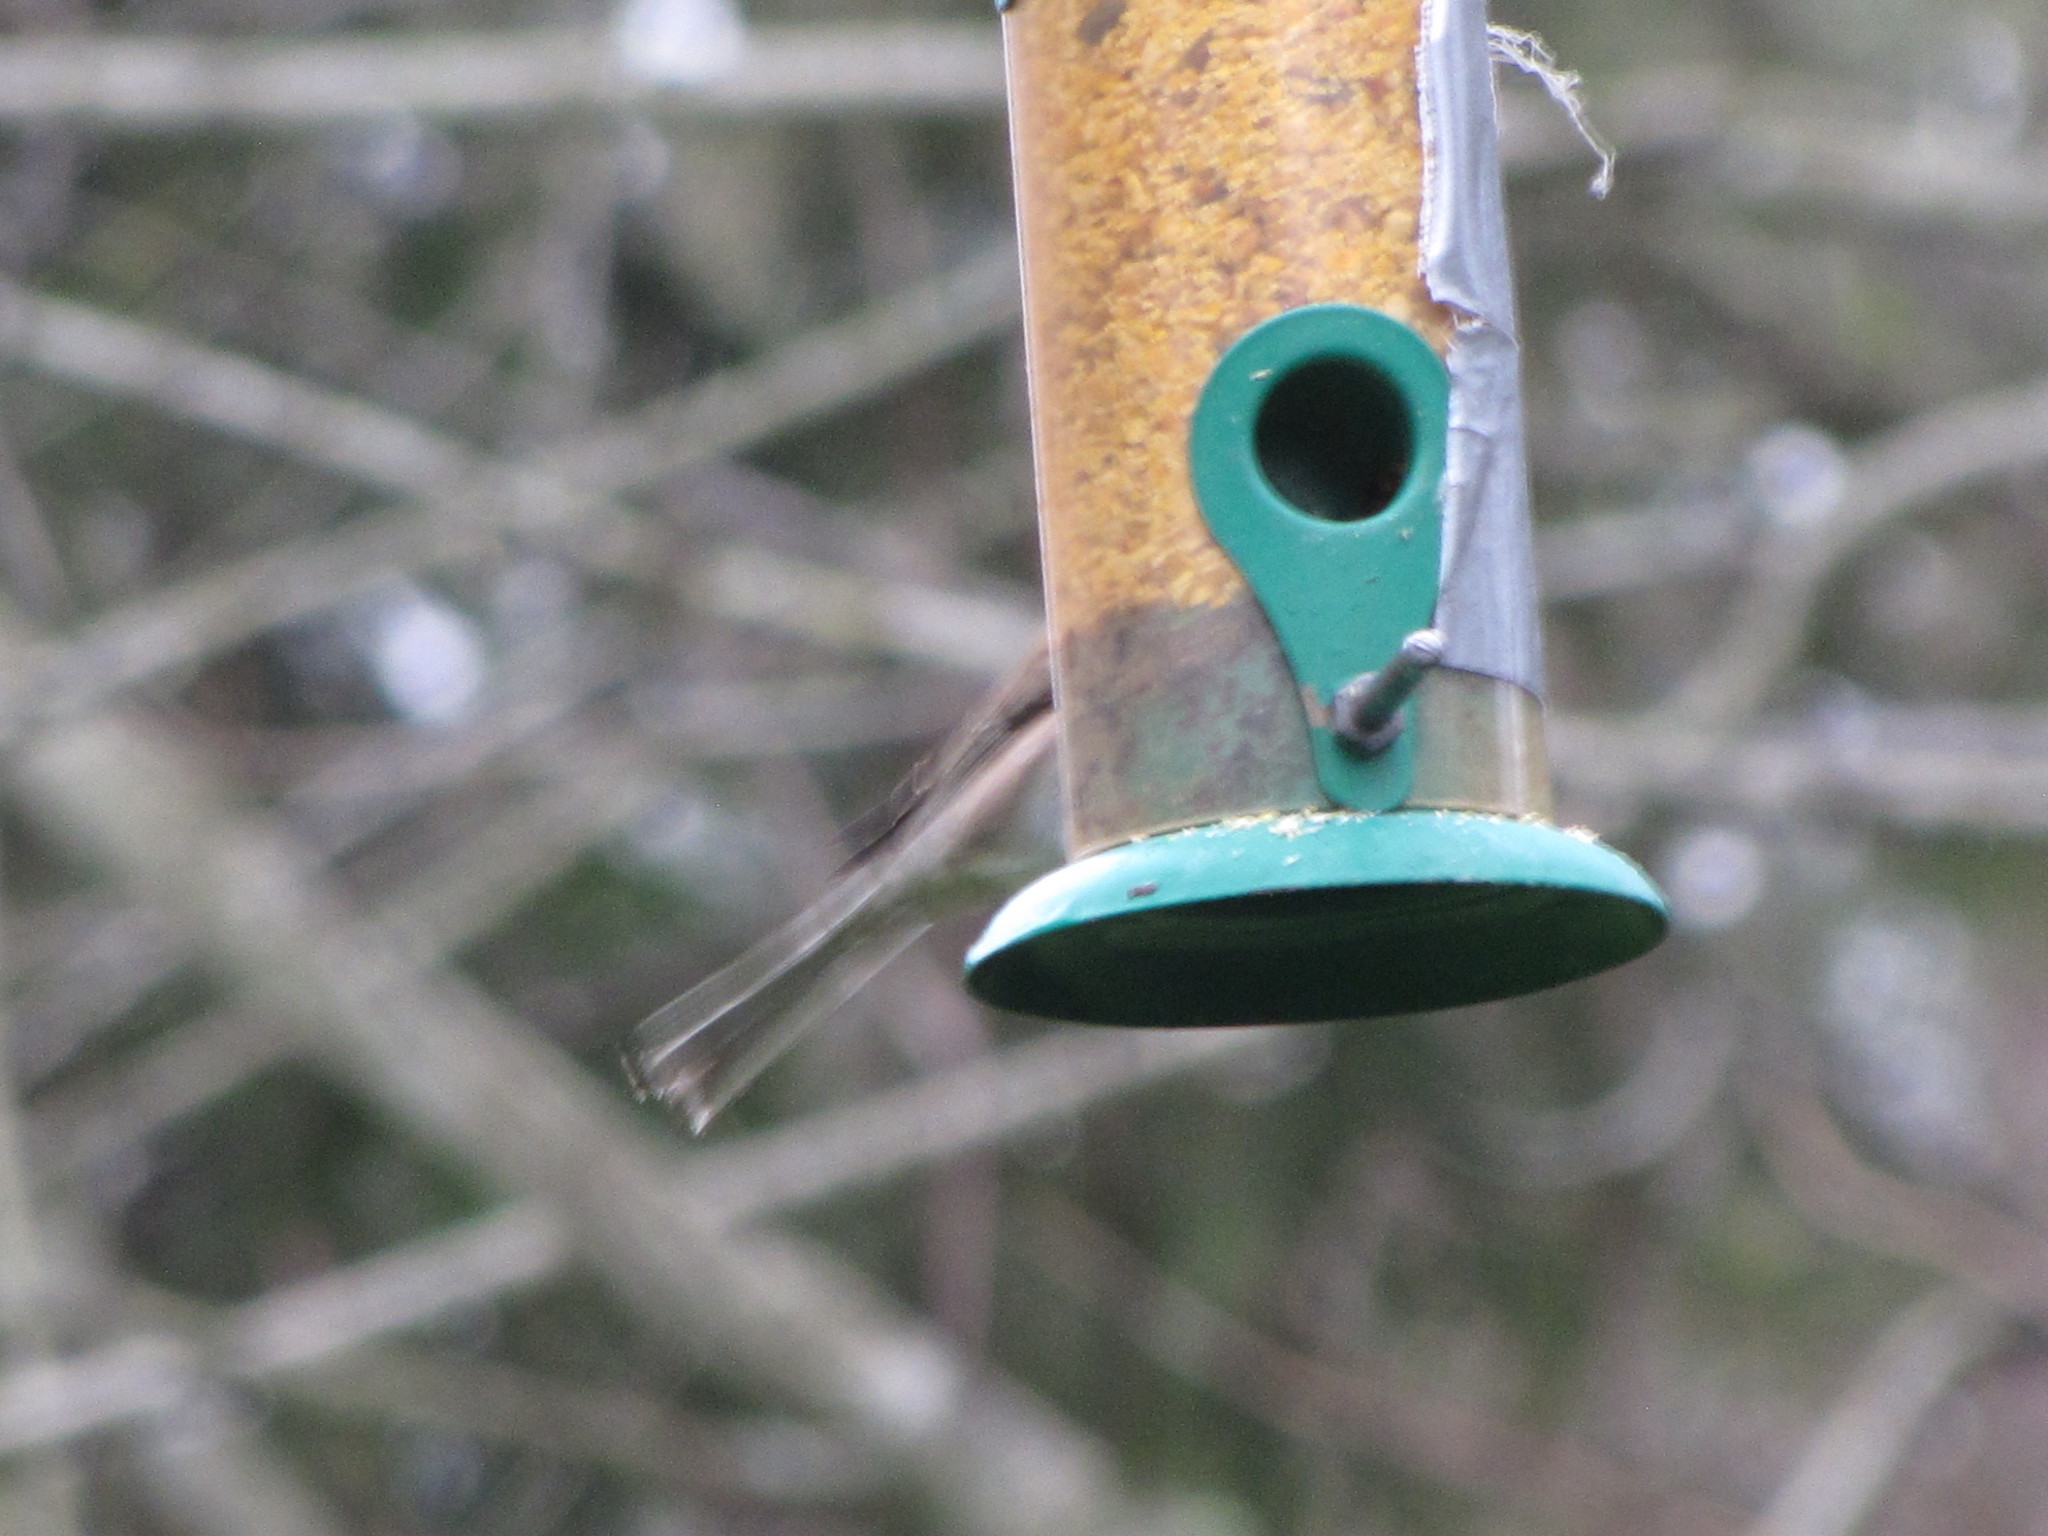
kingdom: Animalia
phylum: Chordata
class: Aves
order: Passeriformes
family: Passerellidae
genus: Junco
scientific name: Junco hyemalis
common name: Dark-eyed junco
